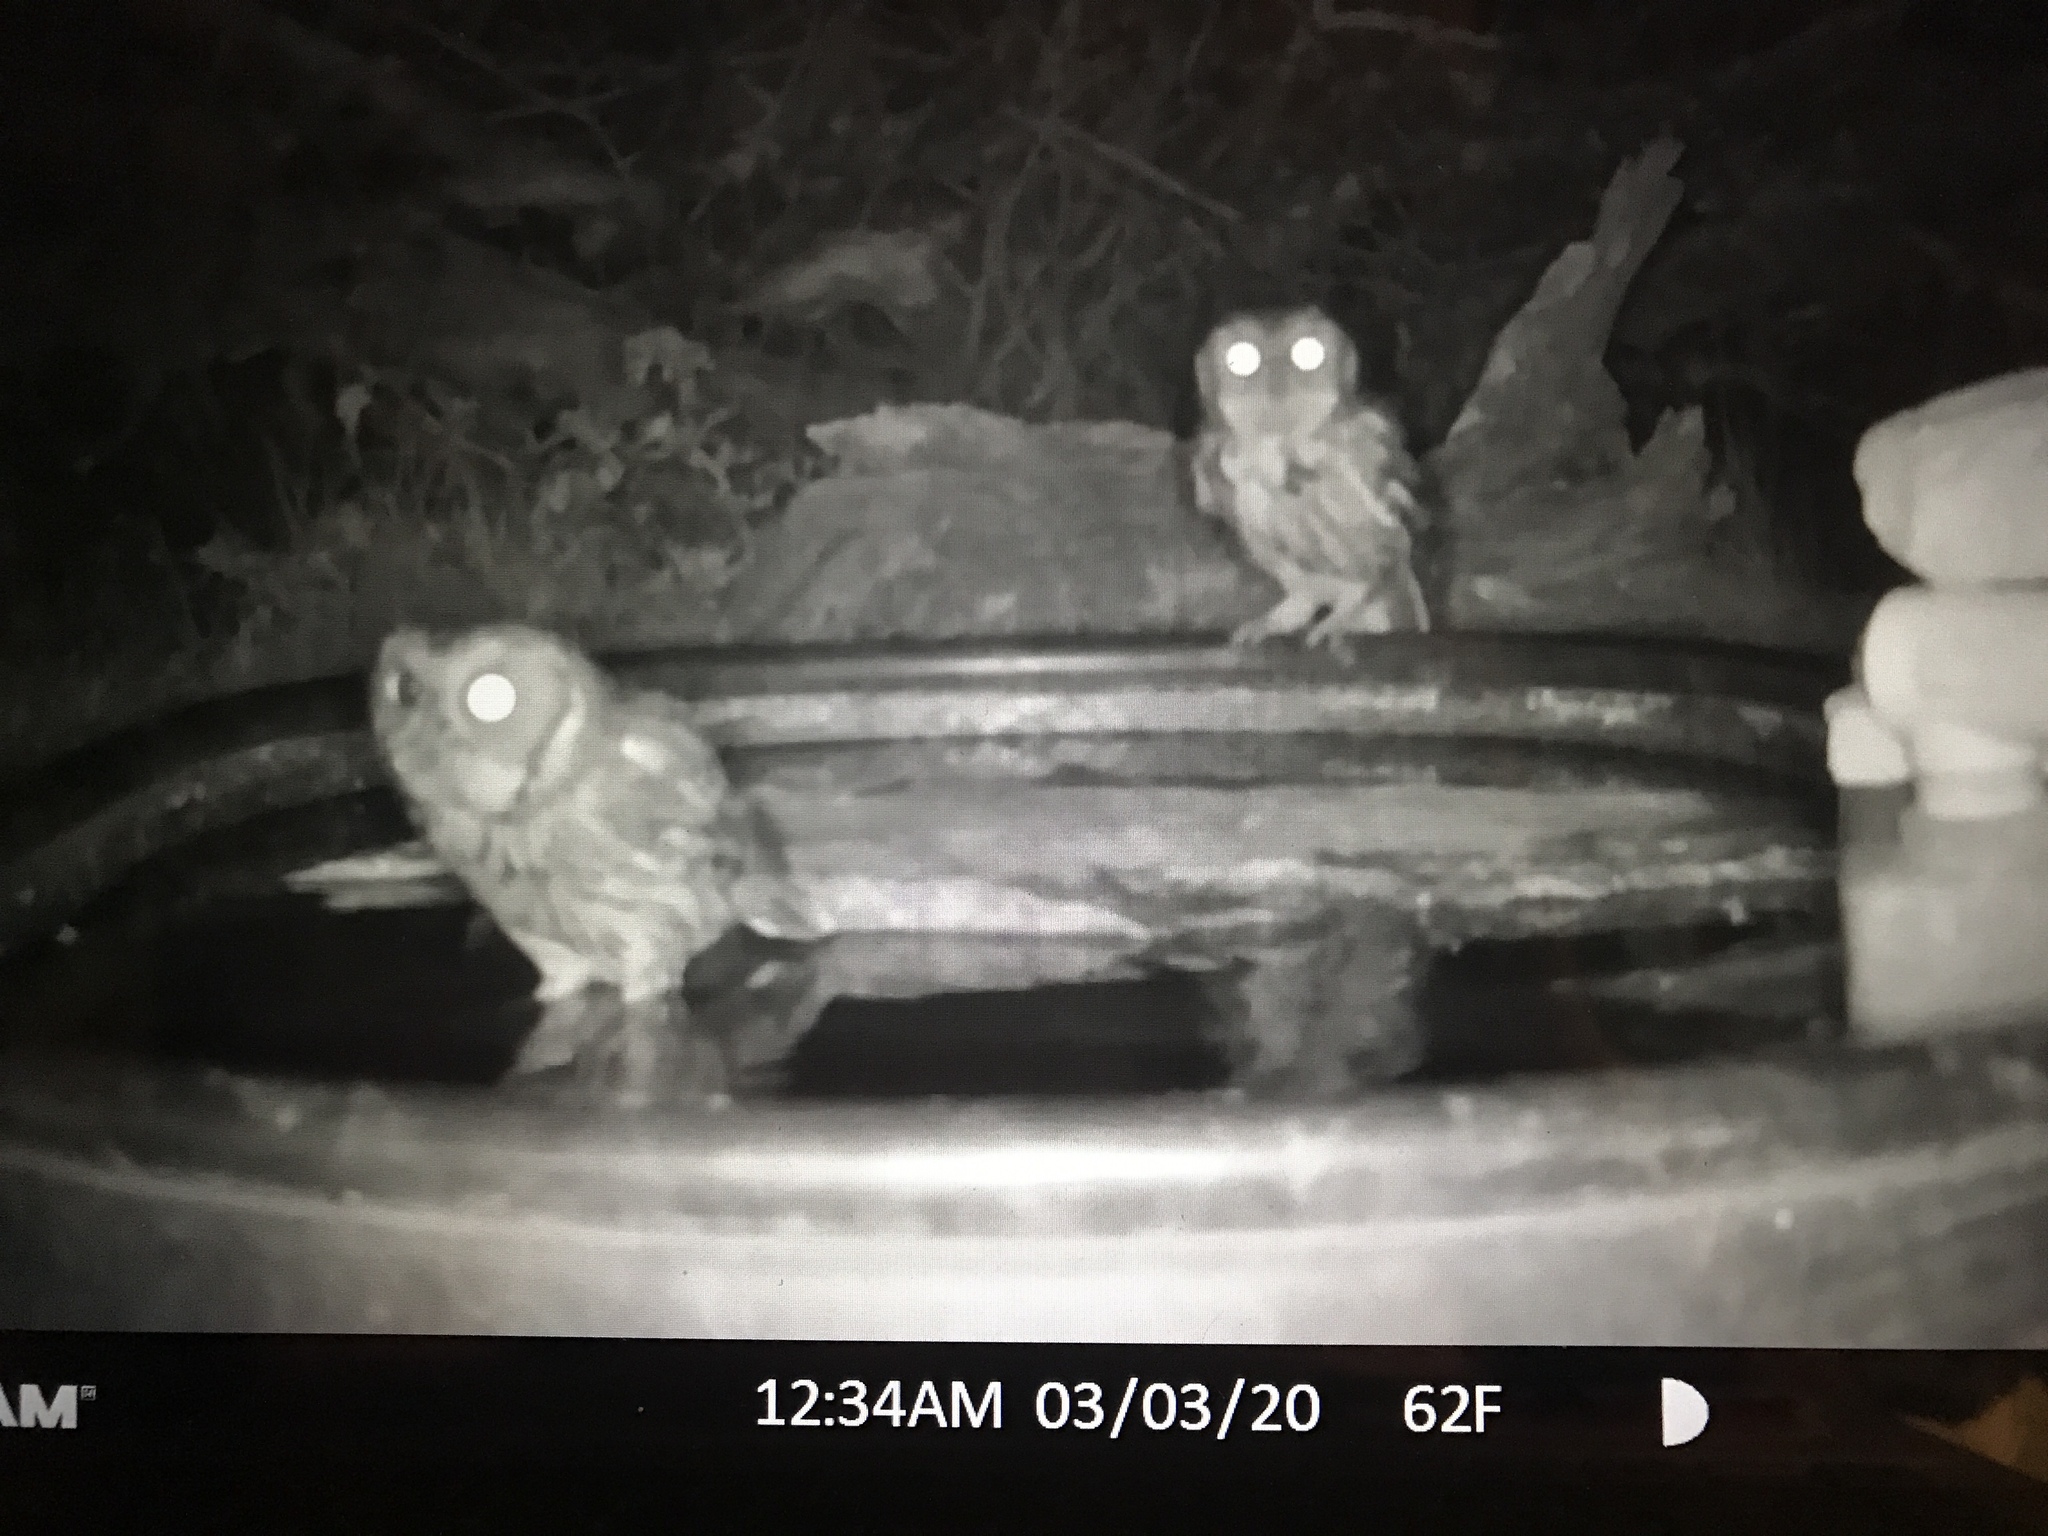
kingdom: Animalia
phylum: Chordata
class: Aves
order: Strigiformes
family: Strigidae
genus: Megascops
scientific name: Megascops asio
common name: Eastern screech-owl
